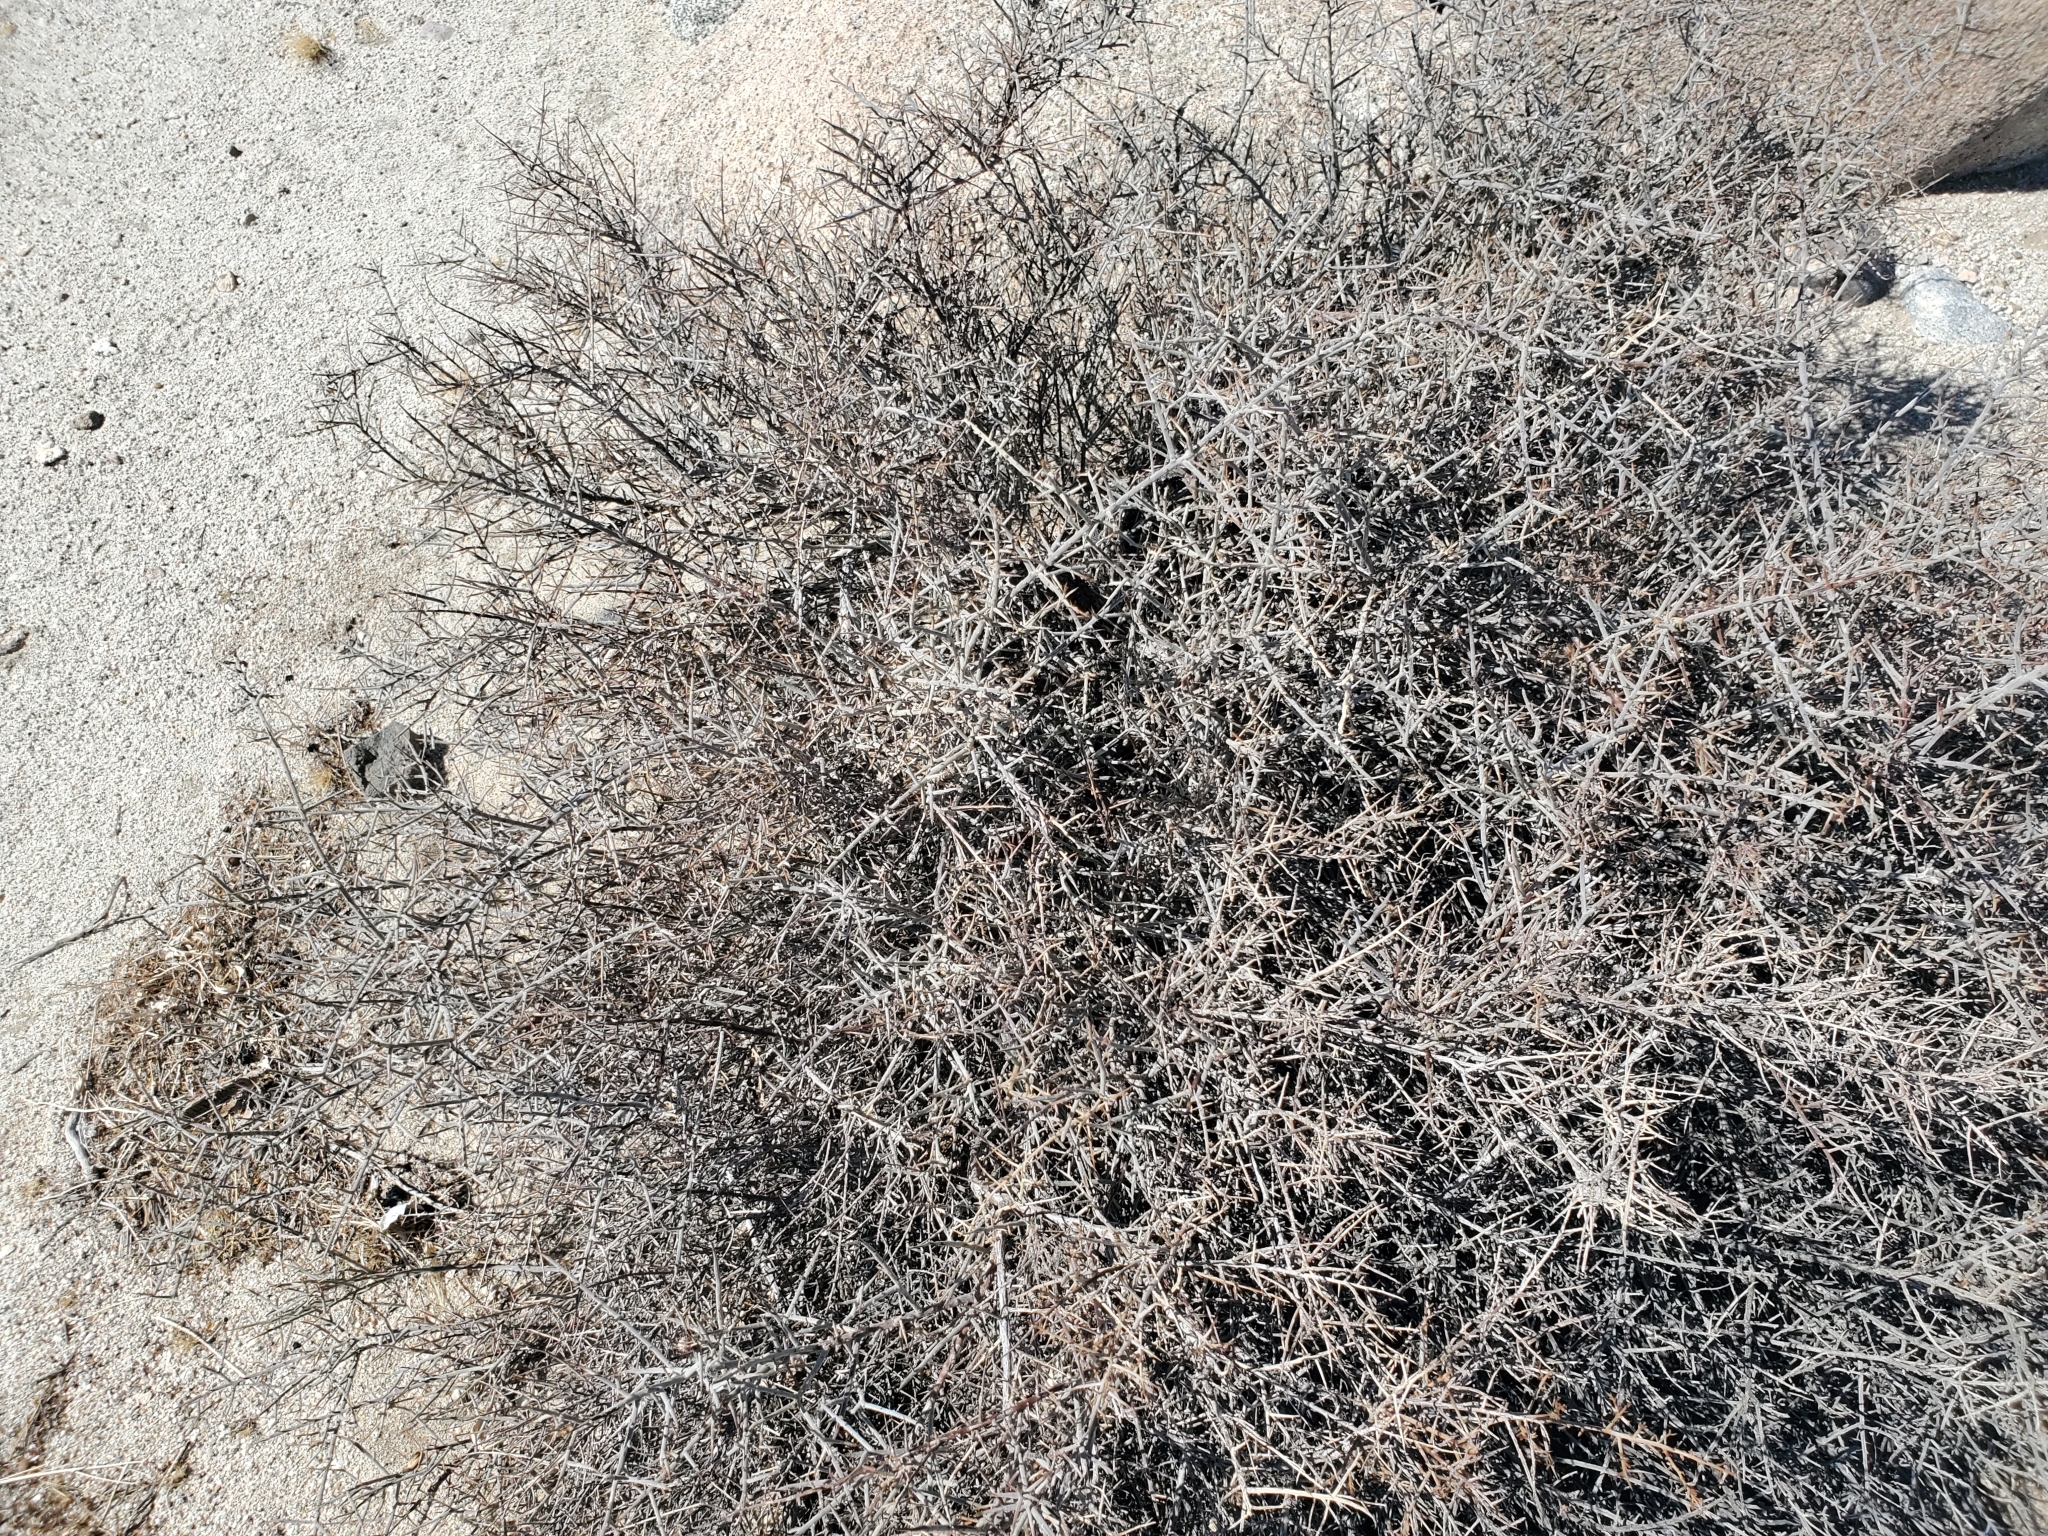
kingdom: Plantae
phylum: Tracheophyta
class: Magnoliopsida
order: Zygophyllales
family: Krameriaceae
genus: Krameria
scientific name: Krameria bicolor
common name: White ratany
